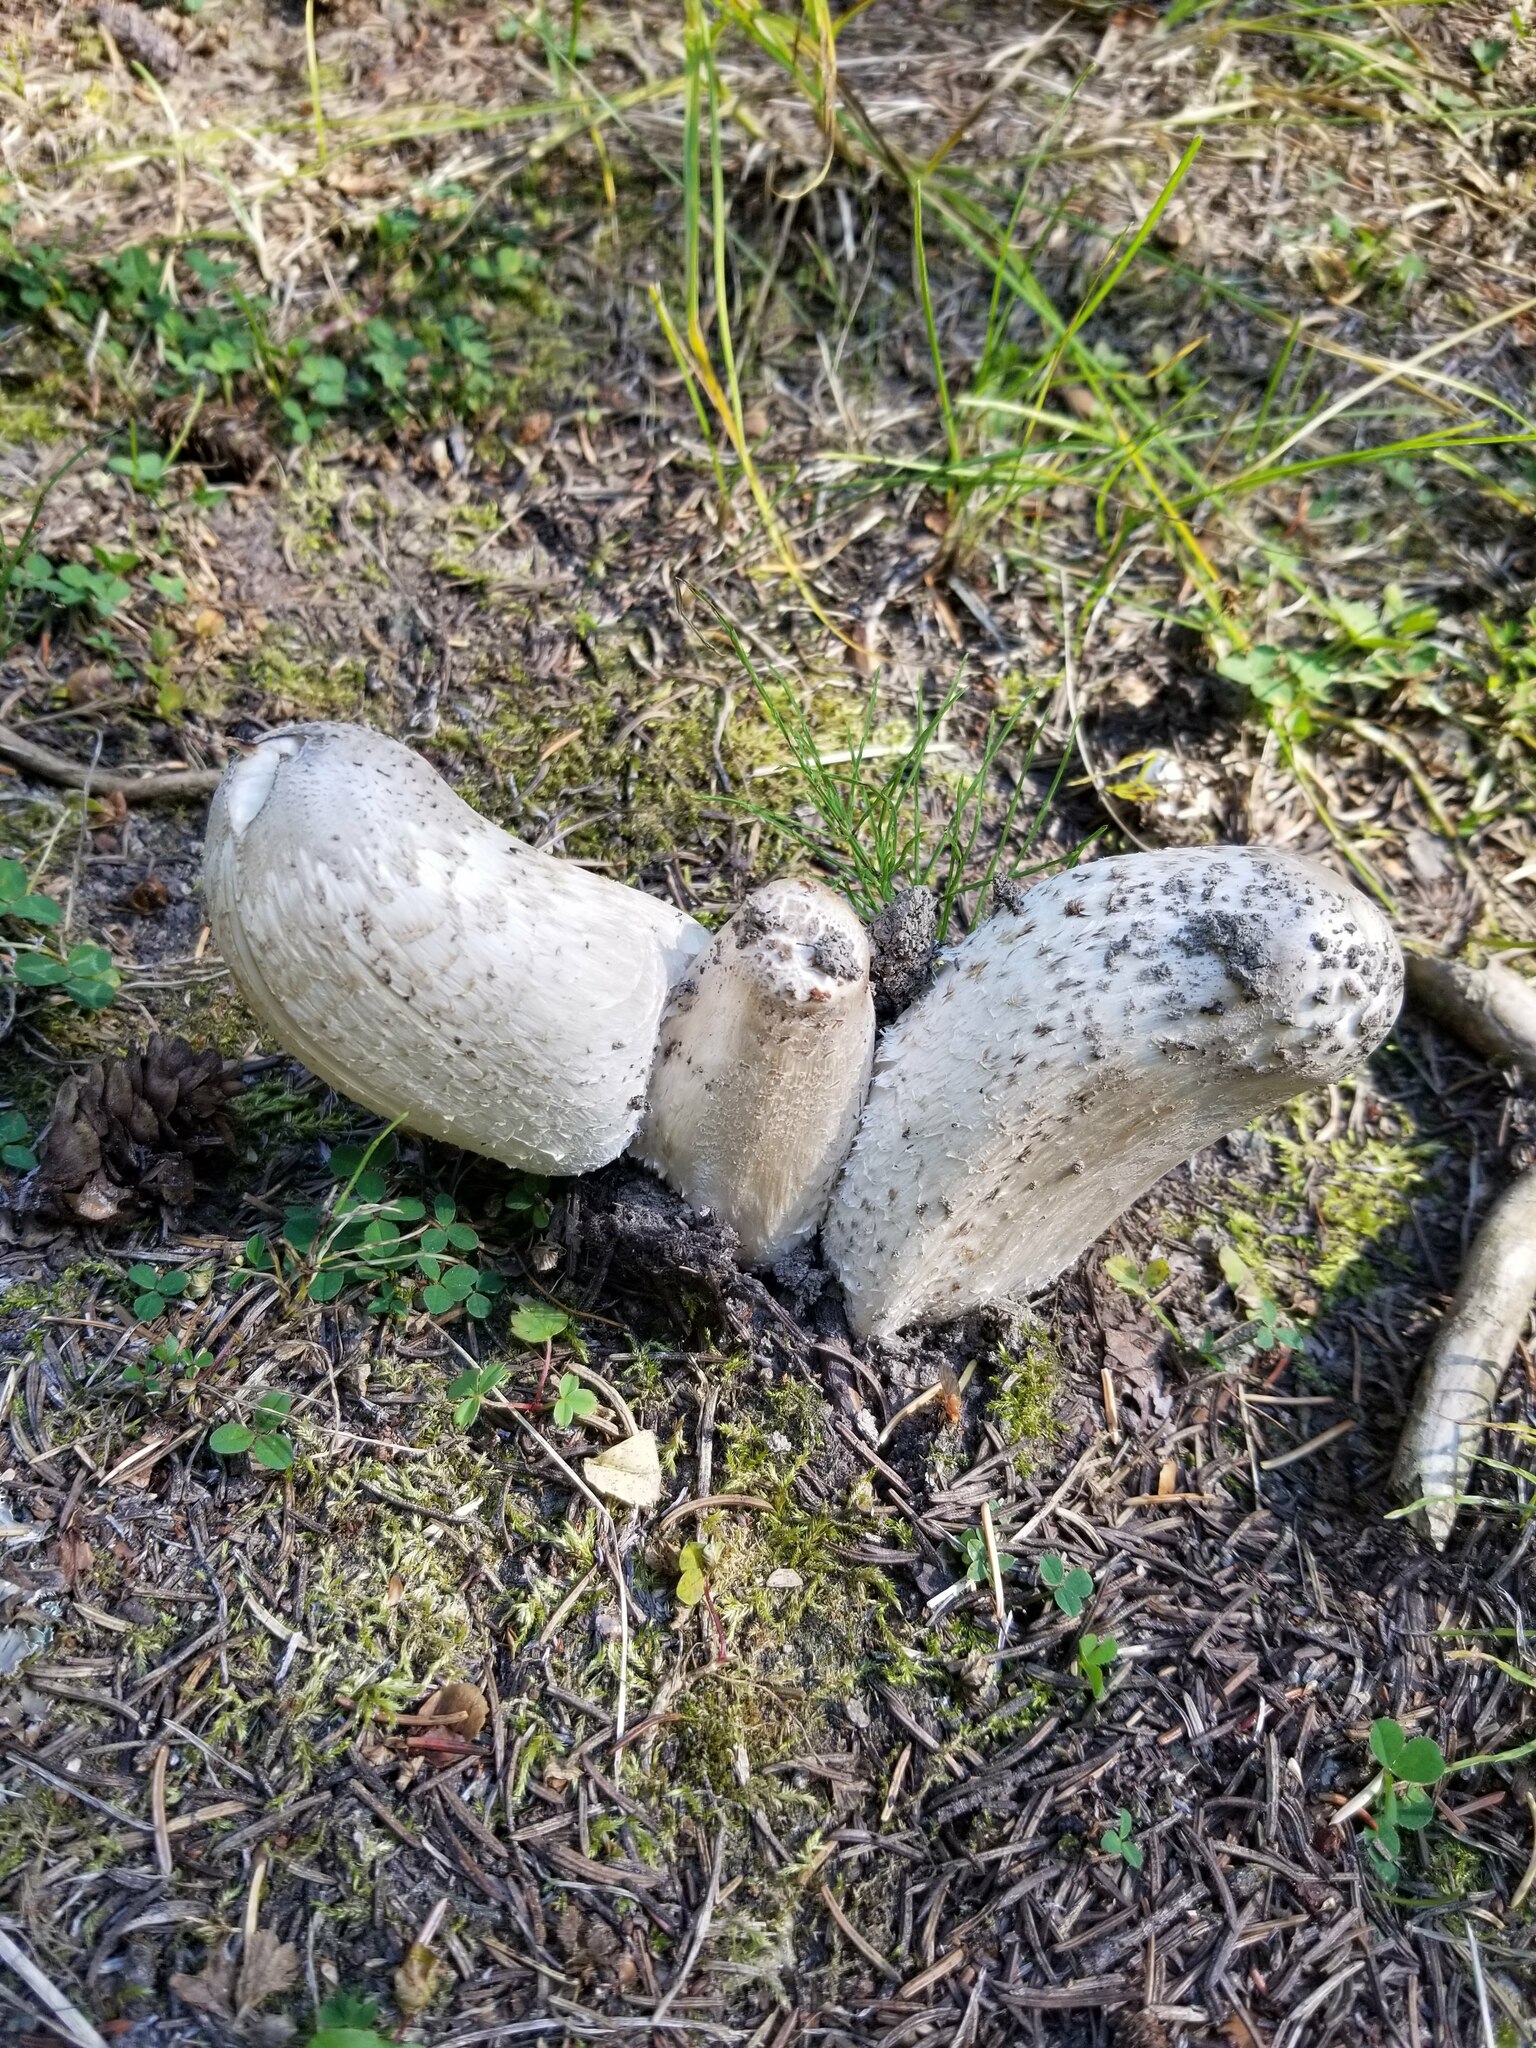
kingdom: Fungi
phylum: Basidiomycota
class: Agaricomycetes
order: Agaricales
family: Agaricaceae
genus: Coprinus
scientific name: Coprinus comatus
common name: Lawyer's wig
